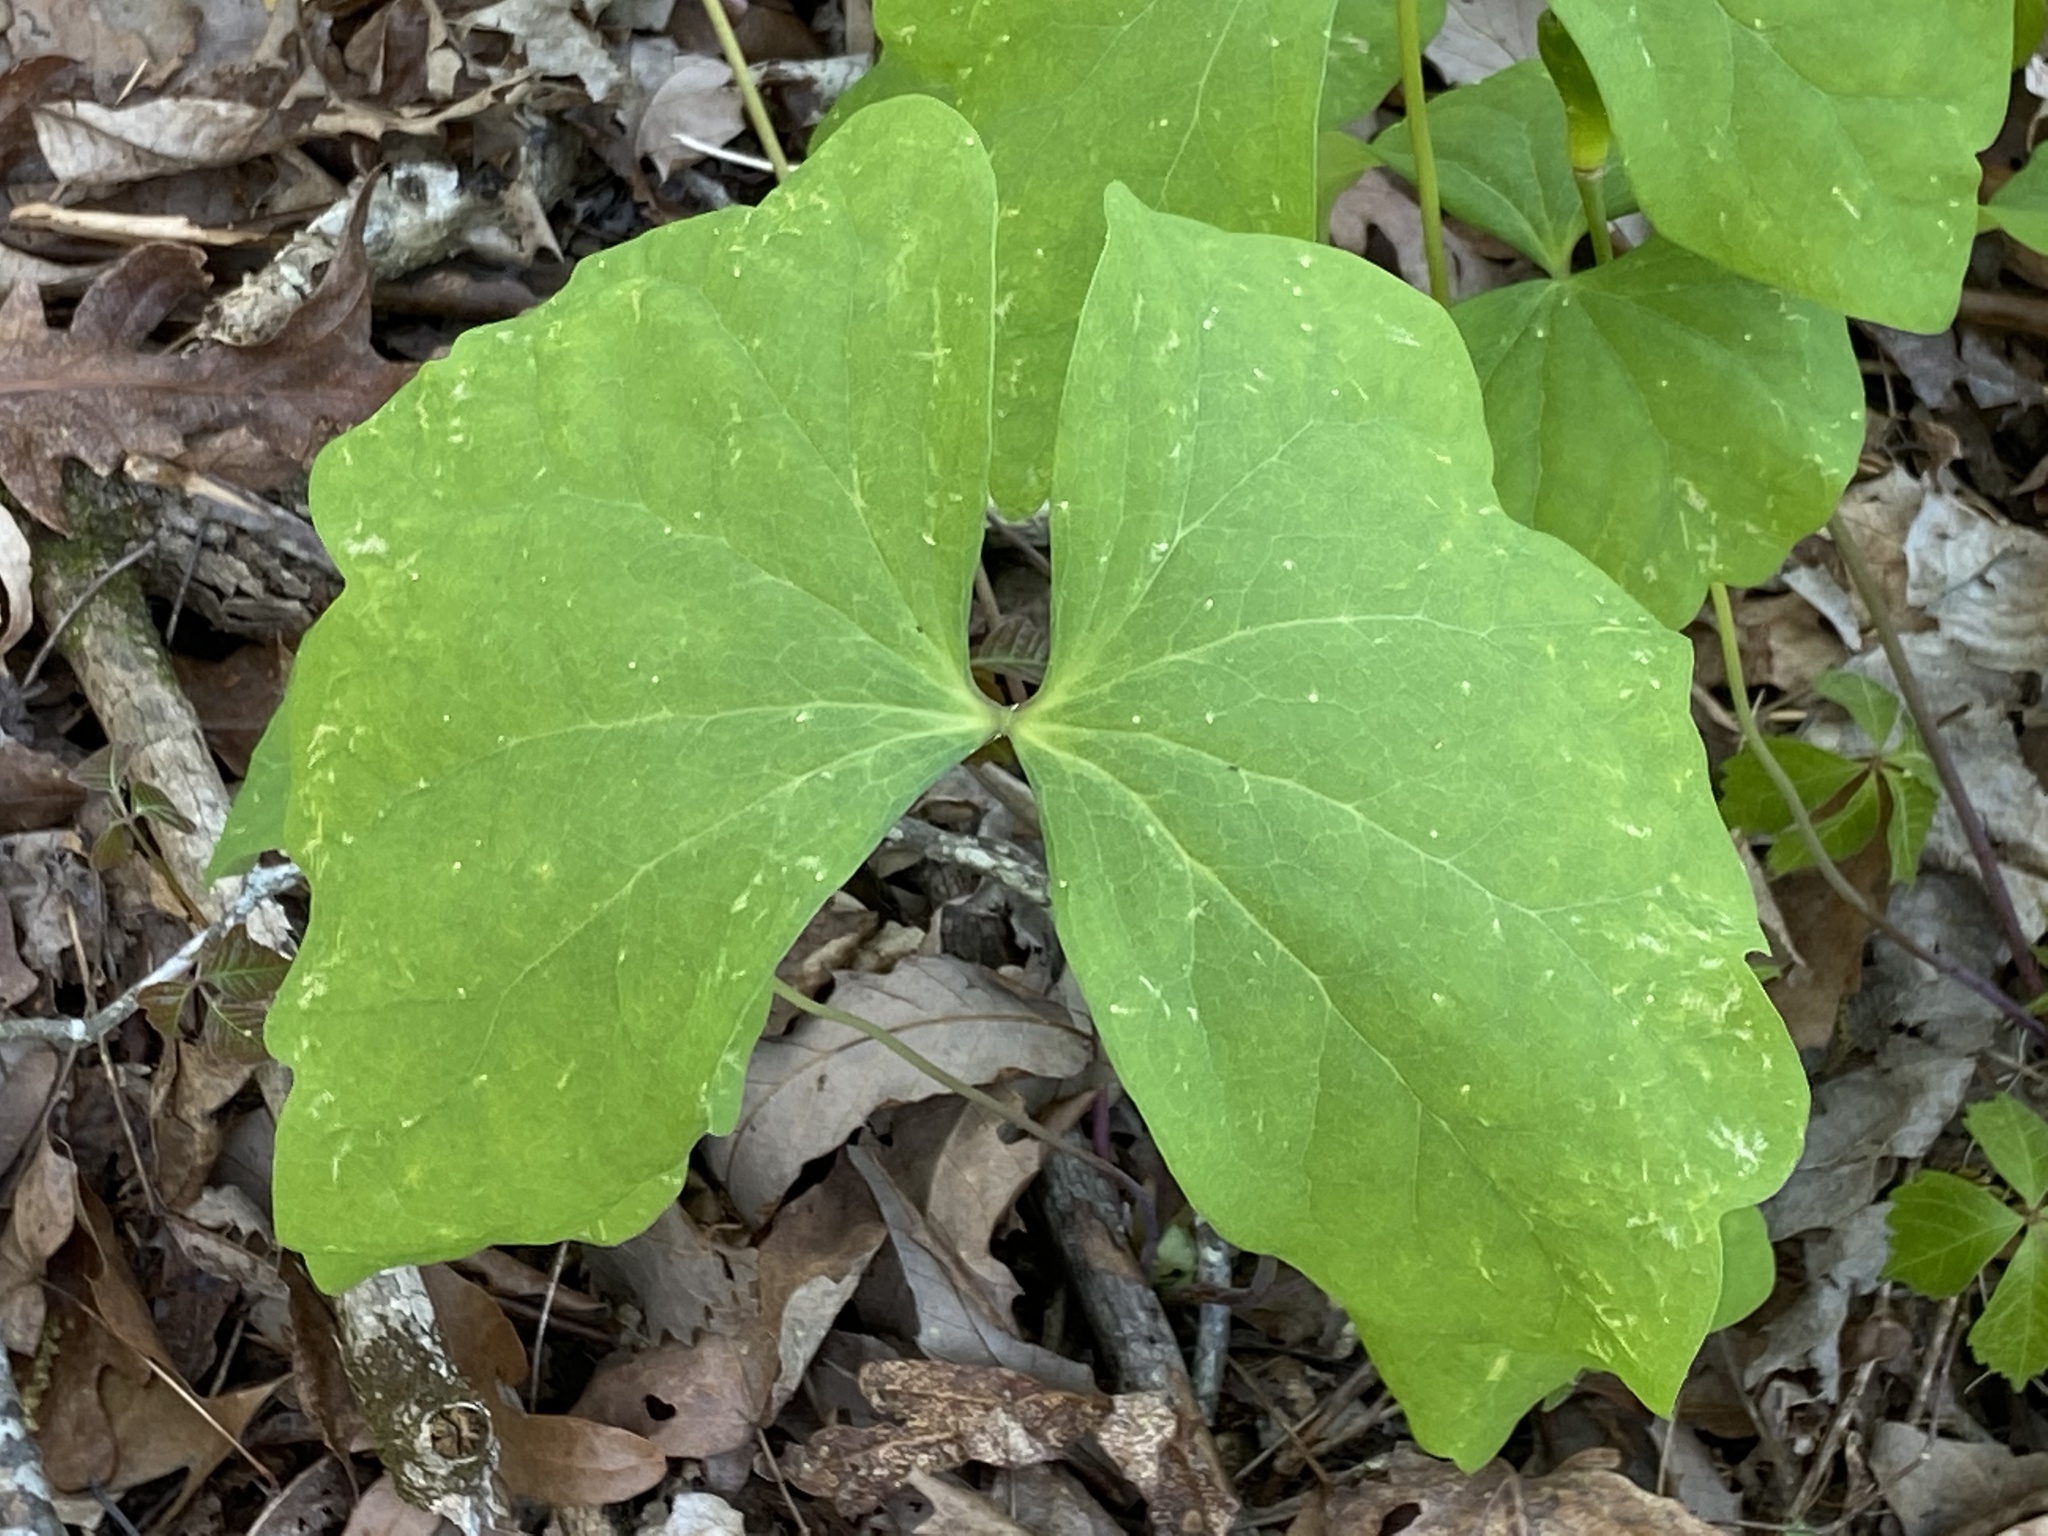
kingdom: Plantae
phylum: Tracheophyta
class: Magnoliopsida
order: Ranunculales
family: Berberidaceae
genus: Jeffersonia
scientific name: Jeffersonia diphylla
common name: Rheumatism-root
